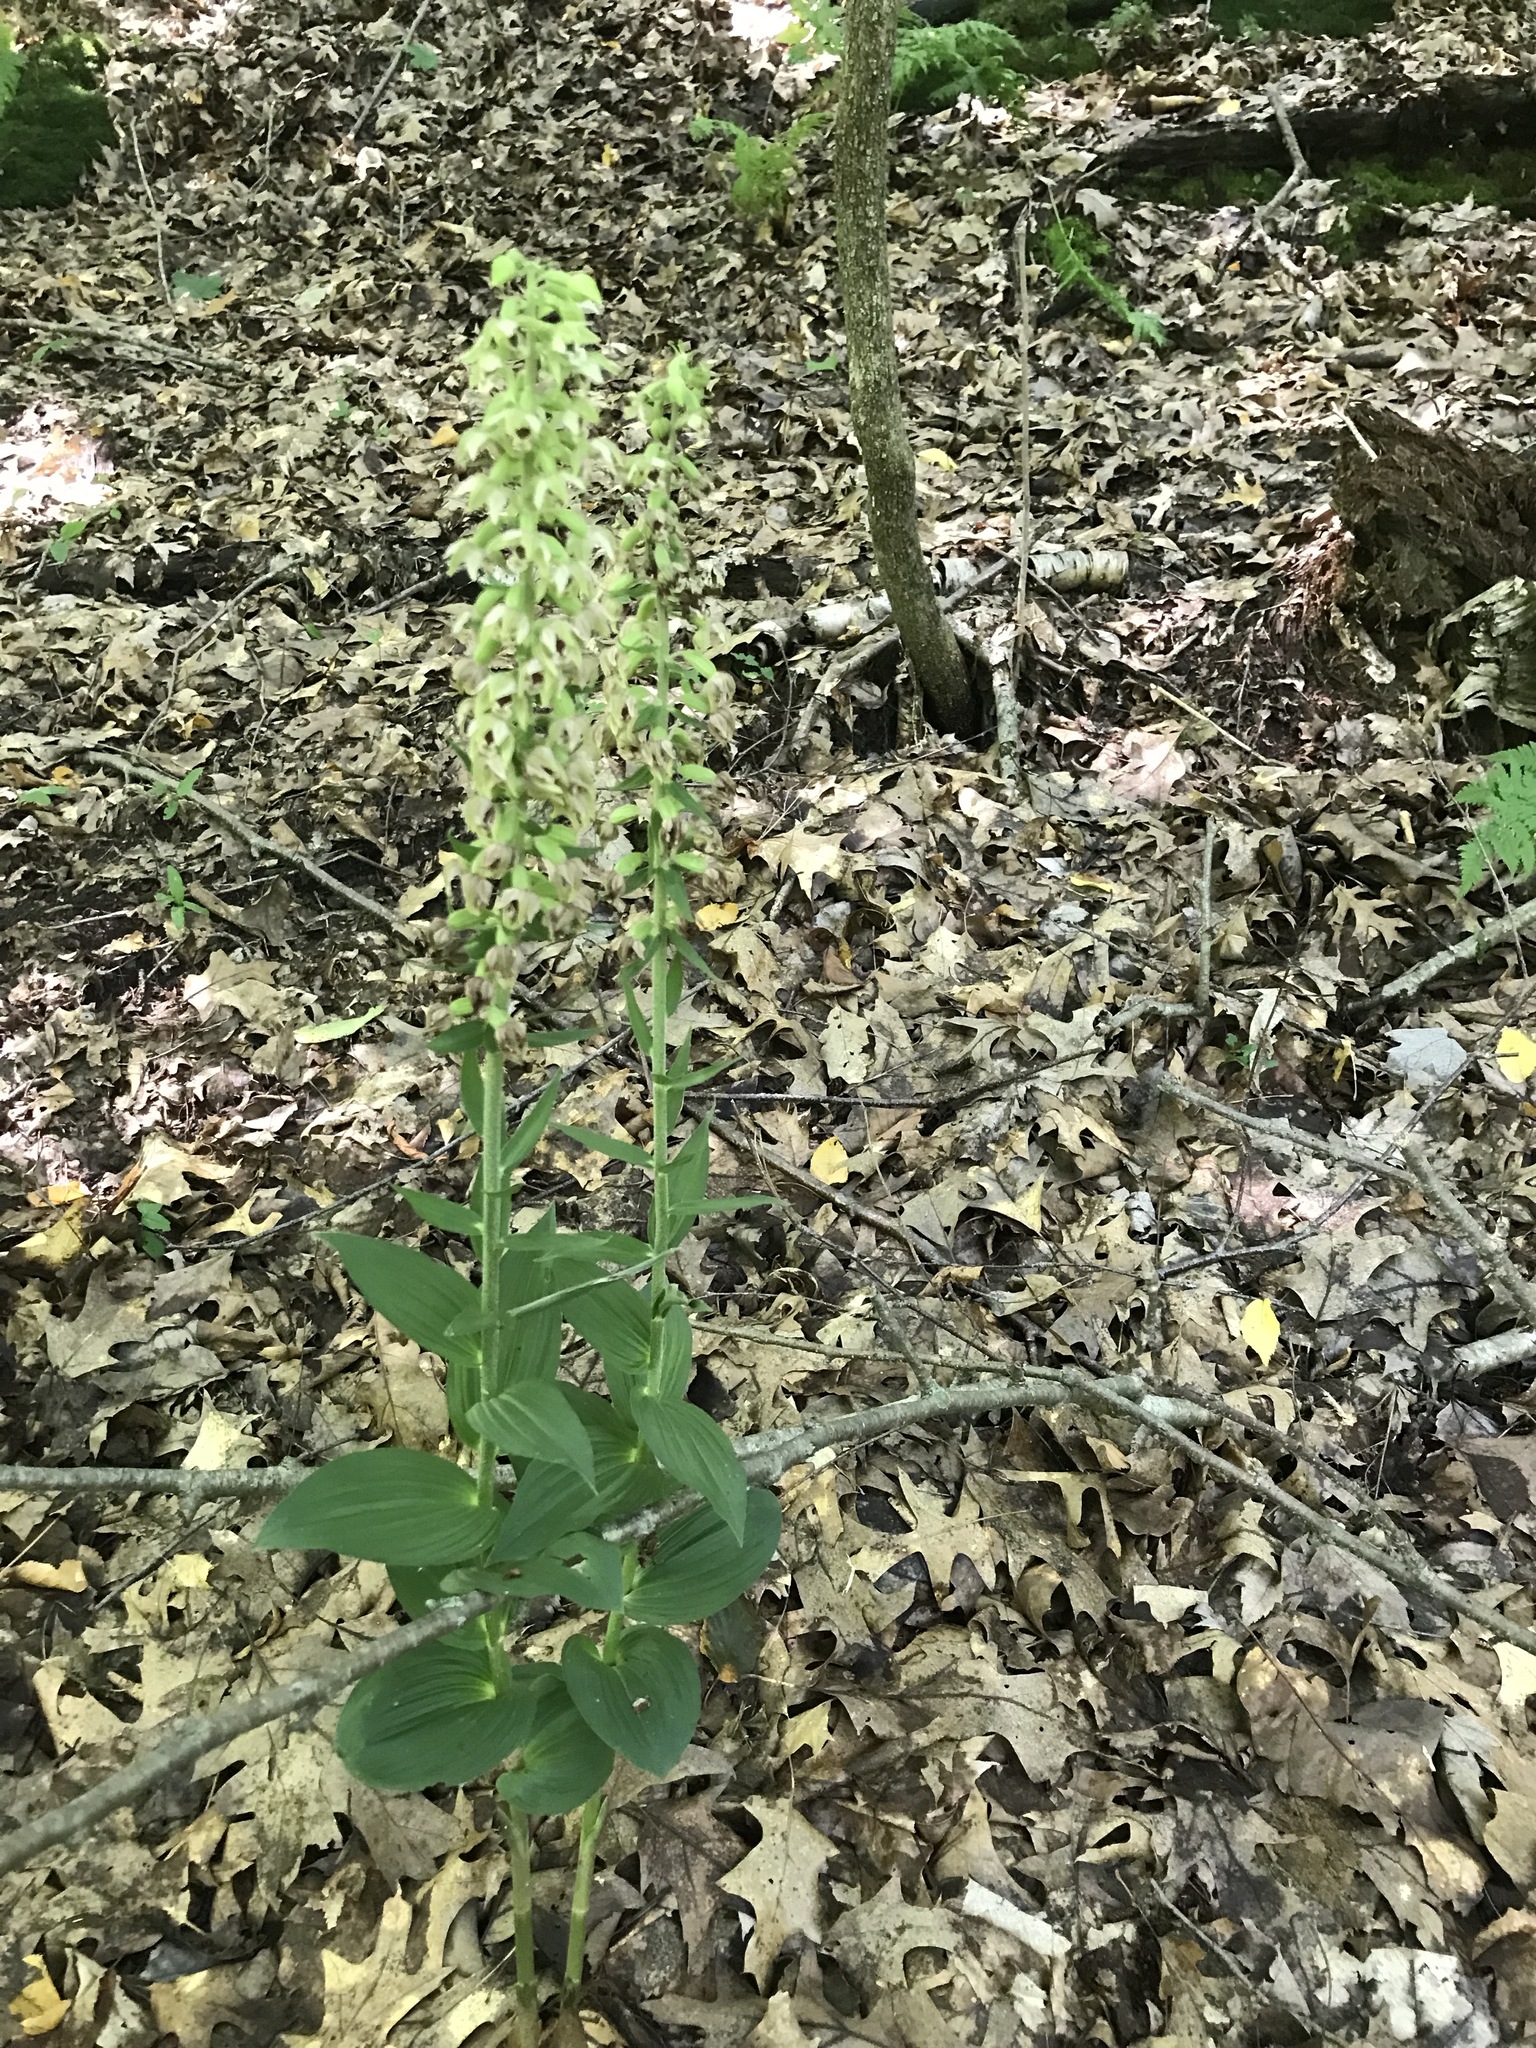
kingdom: Plantae
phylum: Tracheophyta
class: Liliopsida
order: Asparagales
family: Orchidaceae
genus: Epipactis
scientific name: Epipactis helleborine
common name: Broad-leaved helleborine
